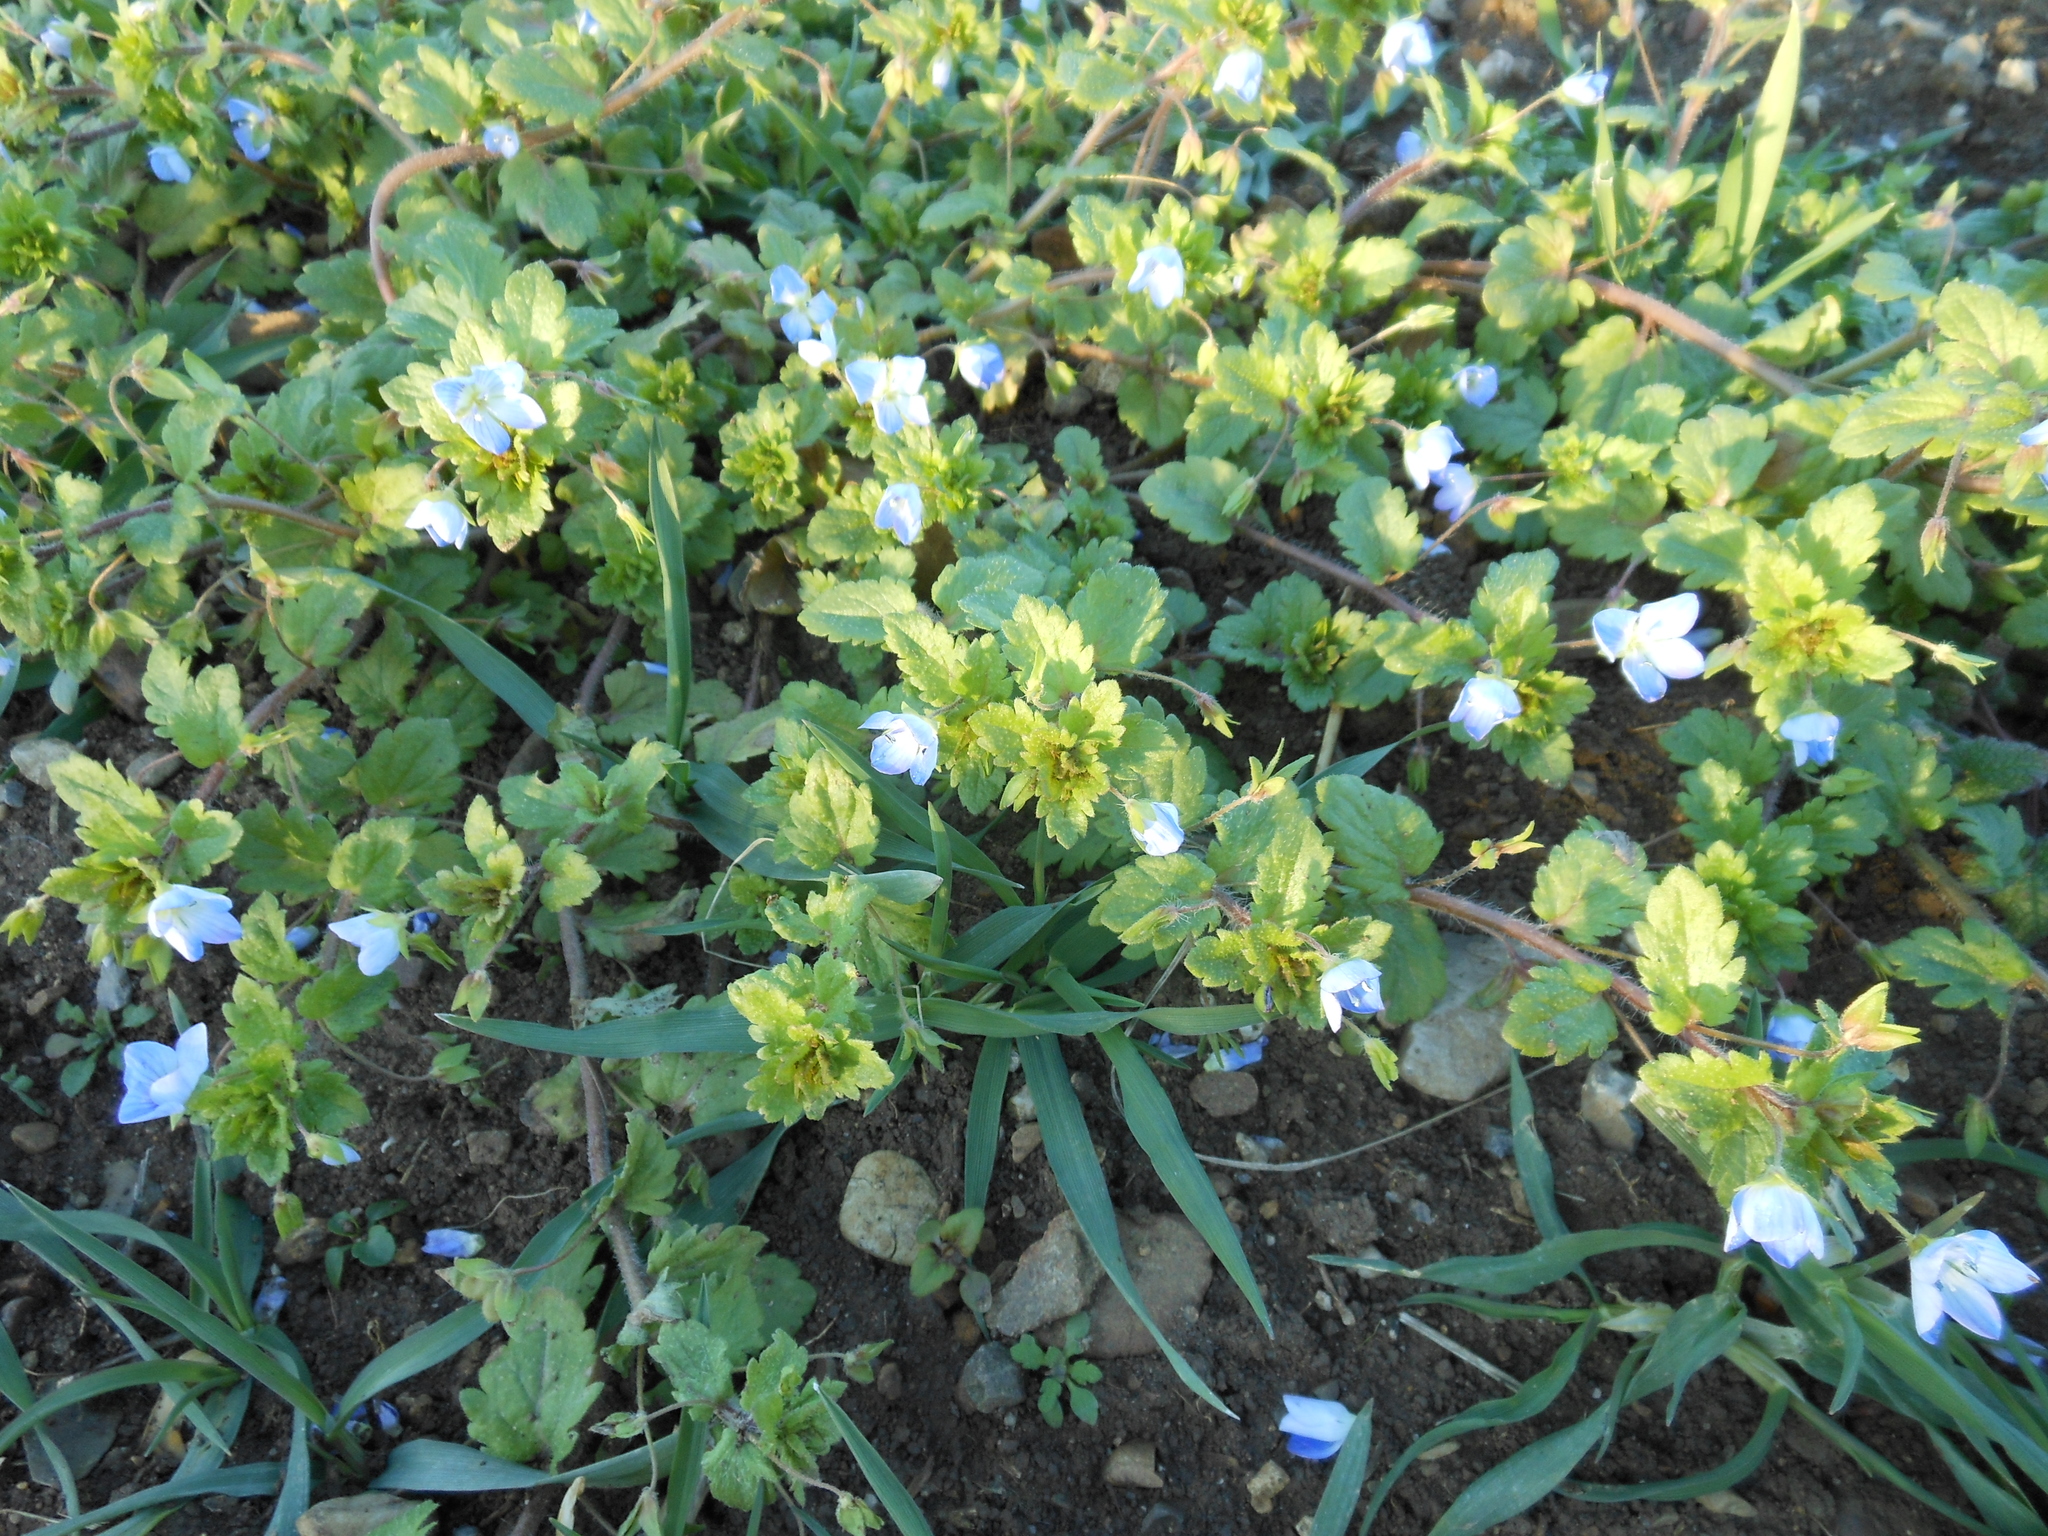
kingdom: Plantae
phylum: Tracheophyta
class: Magnoliopsida
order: Lamiales
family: Plantaginaceae
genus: Veronica
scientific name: Veronica persica
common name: Common field-speedwell
